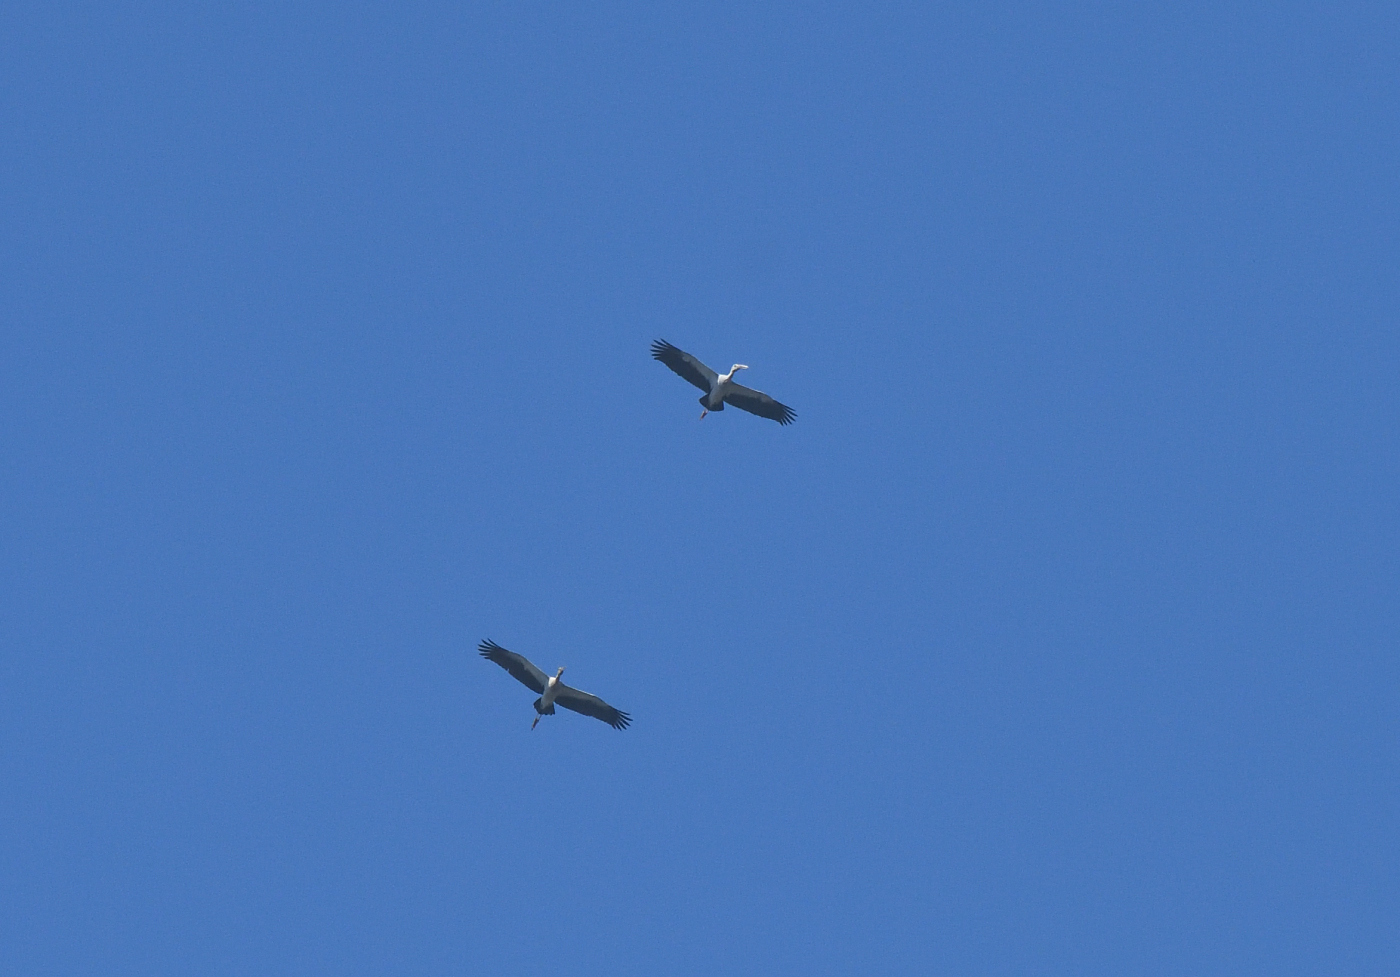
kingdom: Animalia
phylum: Chordata
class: Aves
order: Ciconiiformes
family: Ciconiidae
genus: Anastomus
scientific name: Anastomus oscitans
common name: Asian openbill
